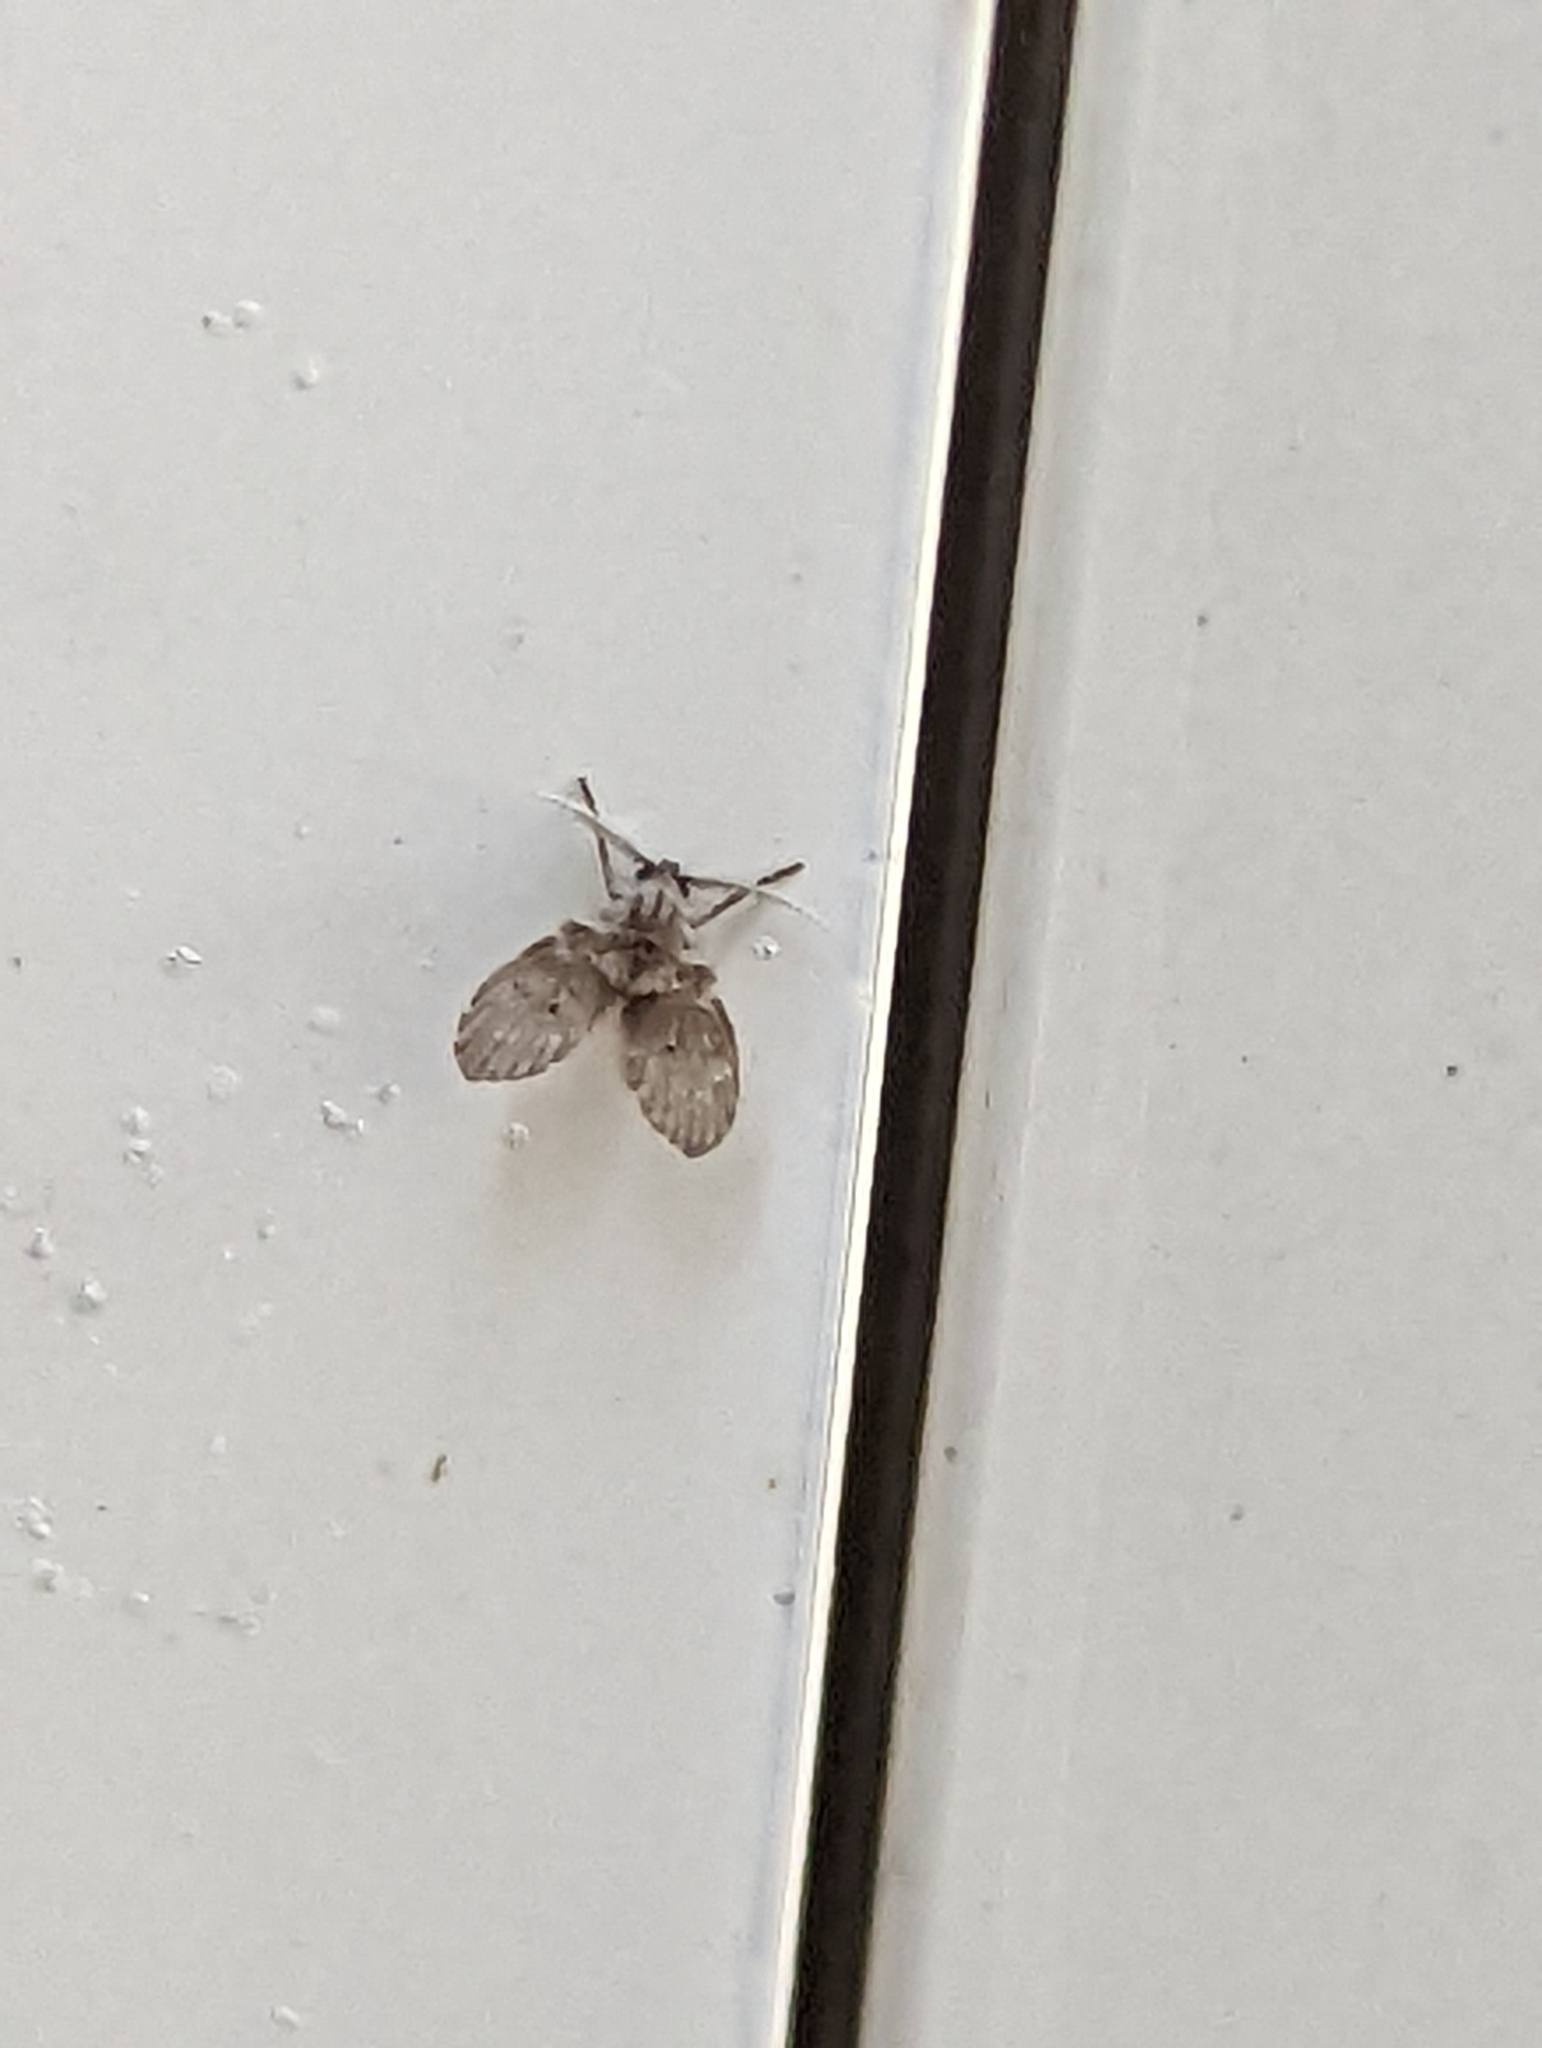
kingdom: Animalia
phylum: Arthropoda
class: Insecta
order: Diptera
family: Psychodidae
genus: Clogmia
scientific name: Clogmia albipunctatus
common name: White-spotted moth fly
